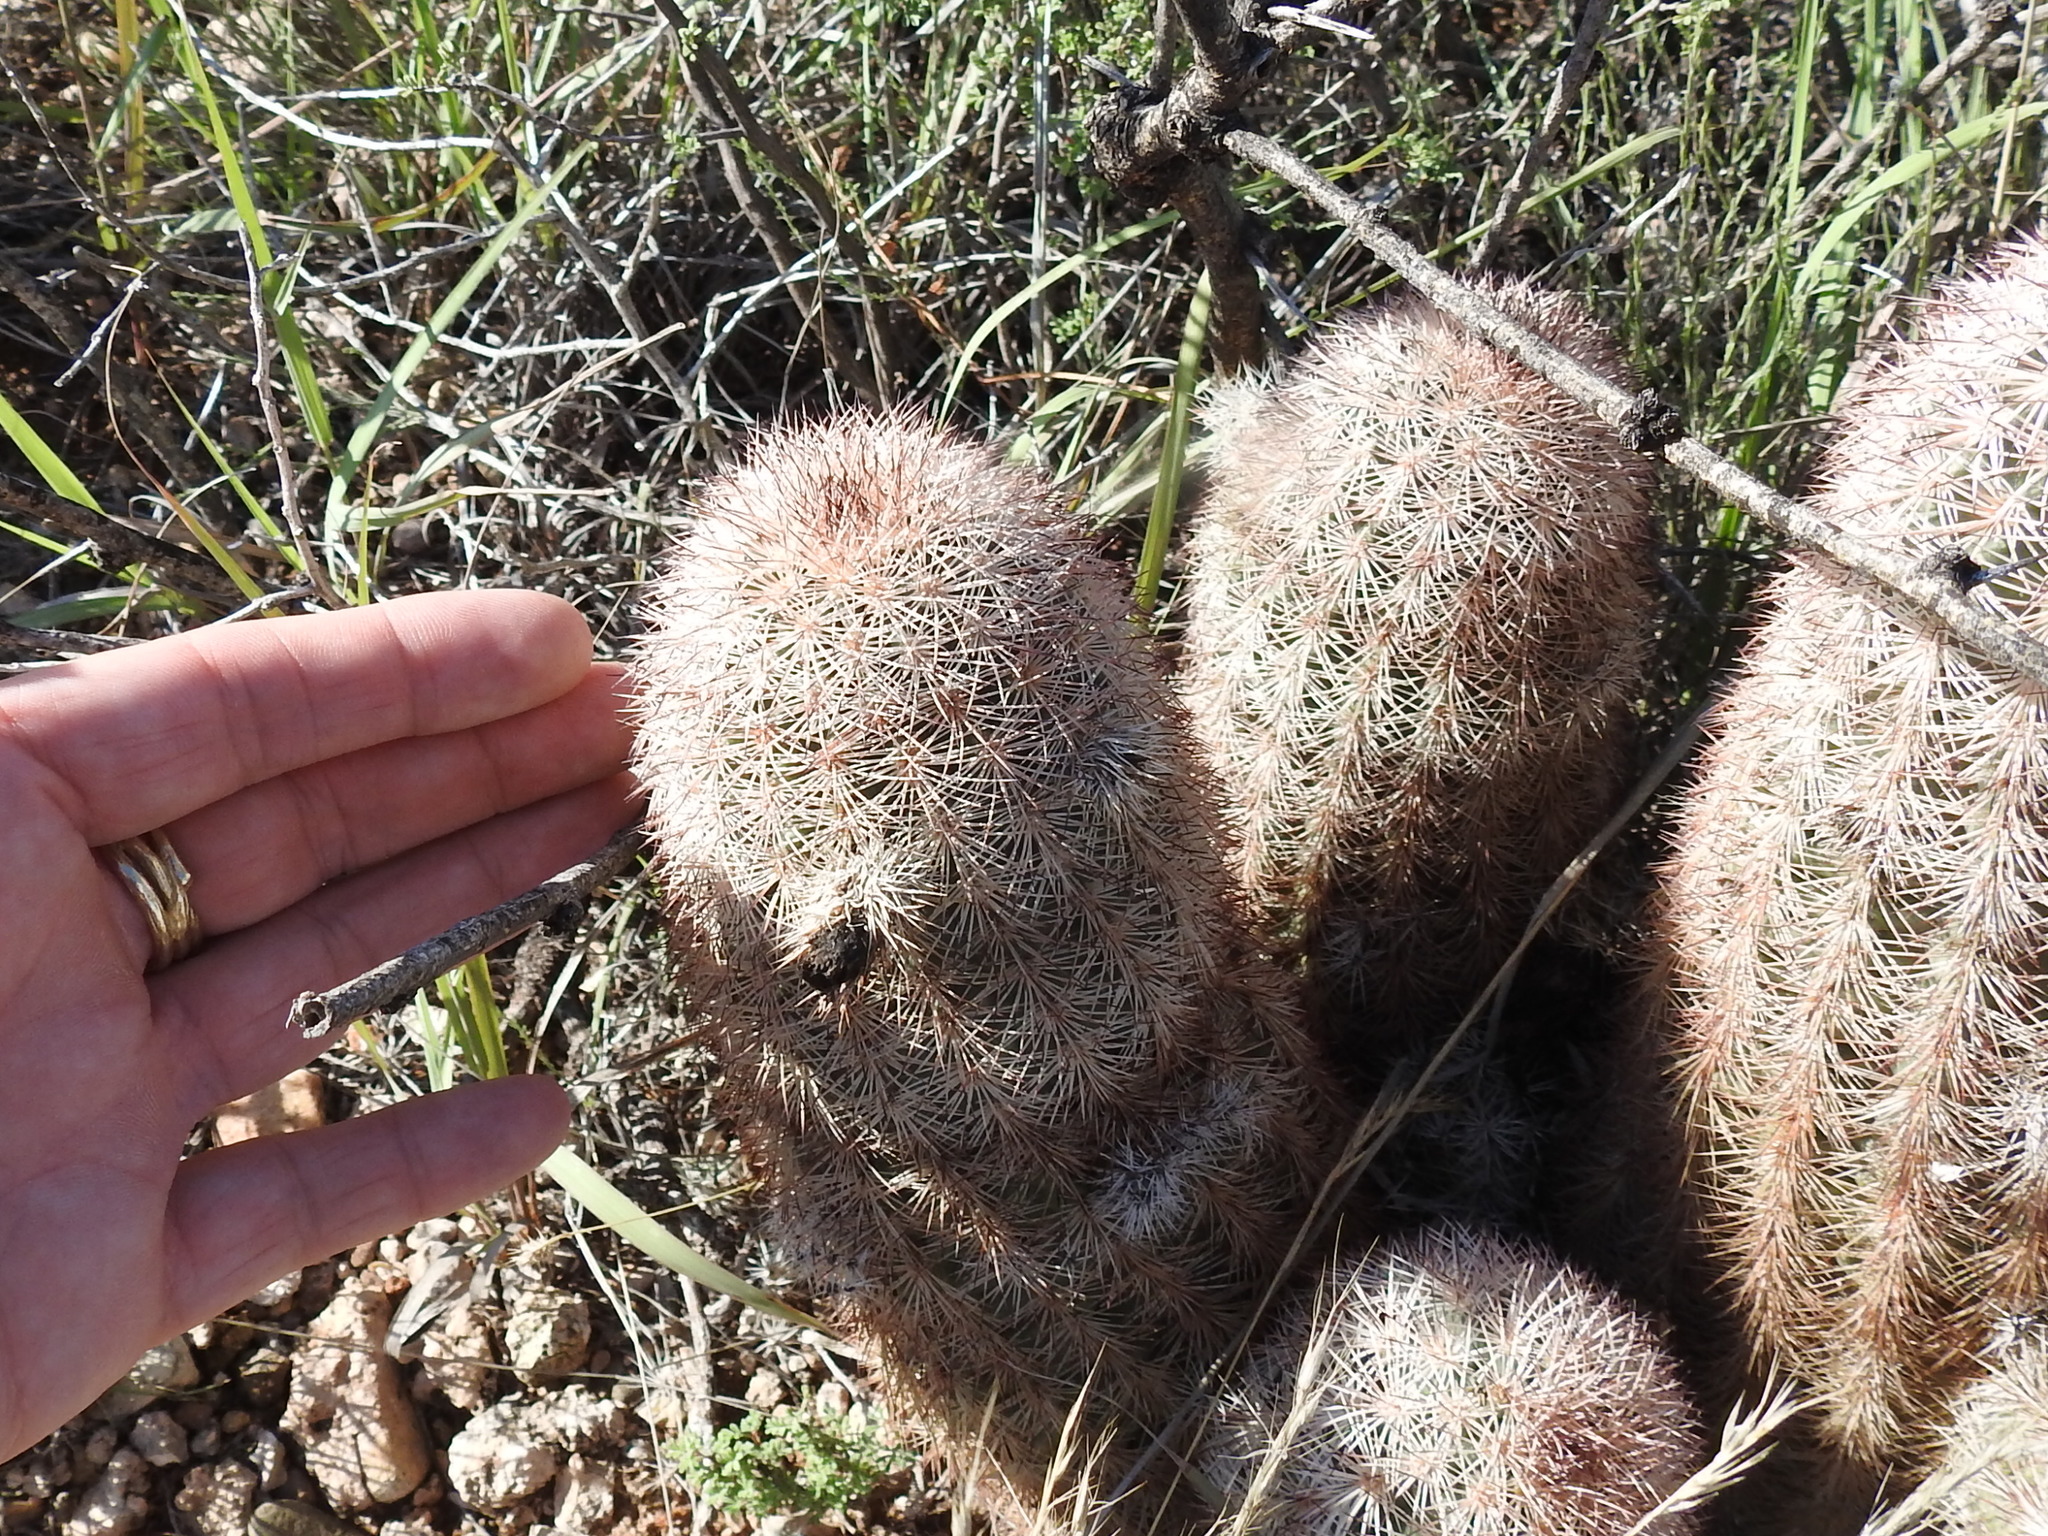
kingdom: Plantae
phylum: Tracheophyta
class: Magnoliopsida
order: Caryophyllales
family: Cactaceae
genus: Echinocereus
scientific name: Echinocereus dasyacanthus
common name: Spiny hedgehog cactus
